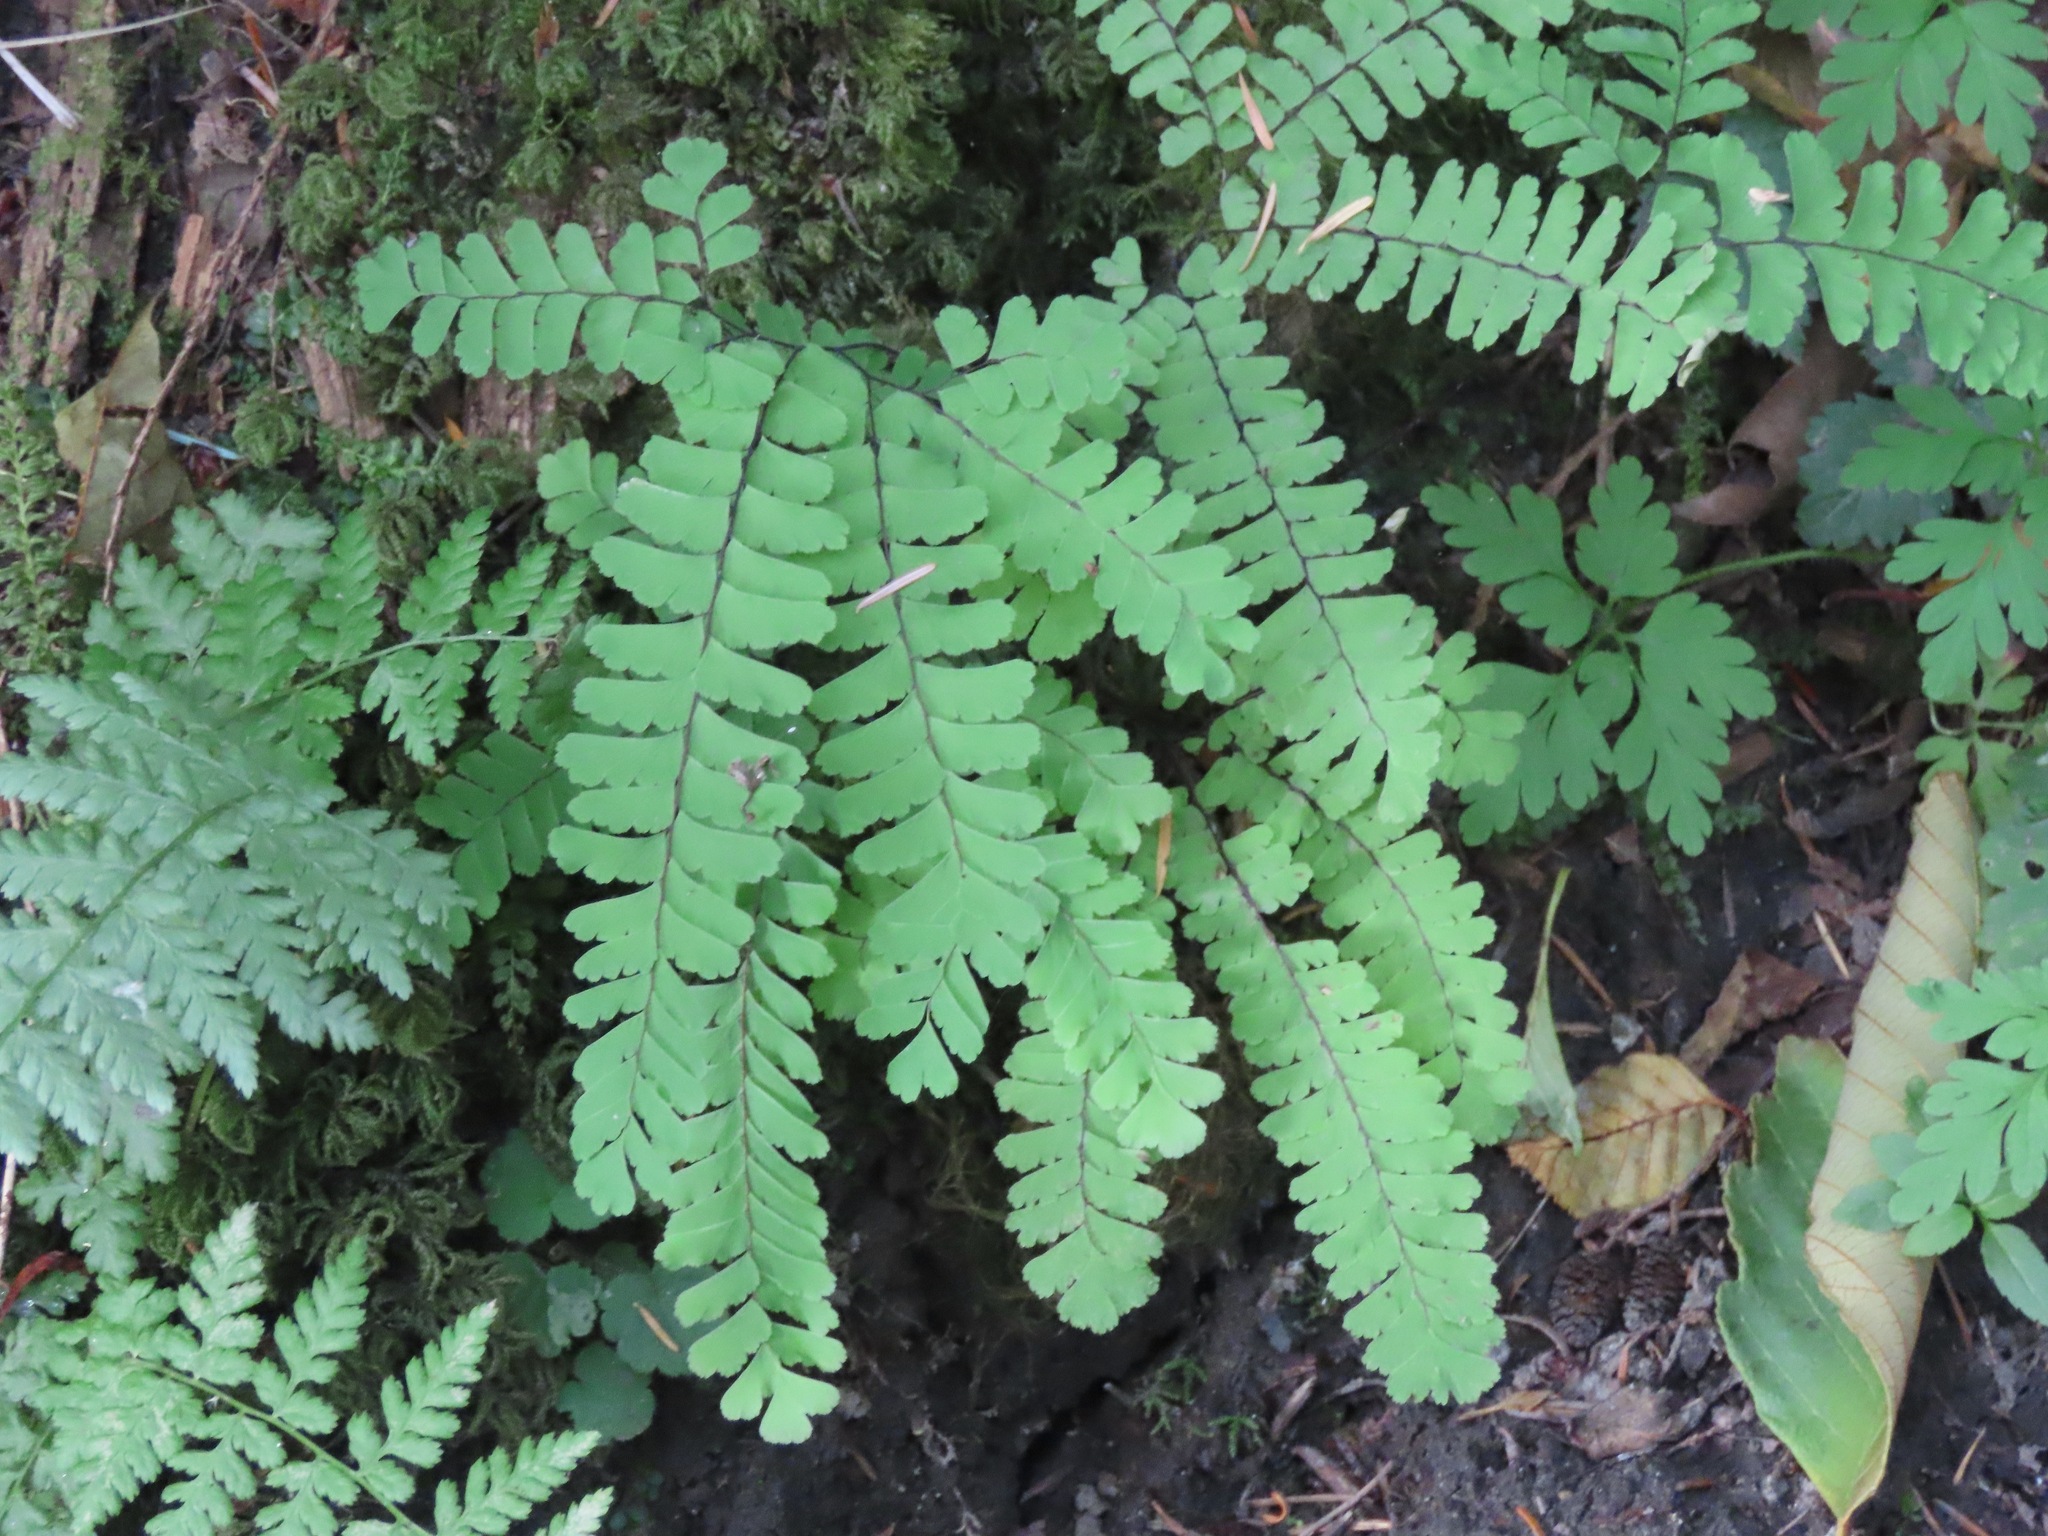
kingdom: Plantae
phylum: Tracheophyta
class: Polypodiopsida
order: Polypodiales
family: Pteridaceae
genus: Adiantum
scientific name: Adiantum aleuticum
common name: Aleutian maidenhair fern
